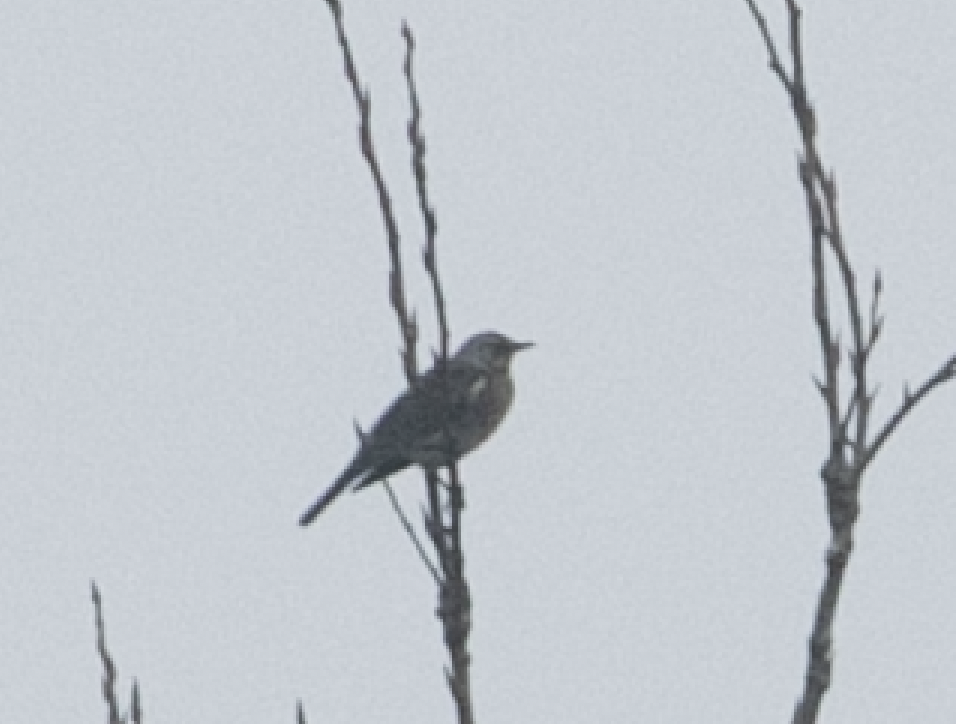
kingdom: Animalia
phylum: Chordata
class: Aves
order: Passeriformes
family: Turdidae
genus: Turdus
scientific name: Turdus pilaris
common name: Fieldfare
